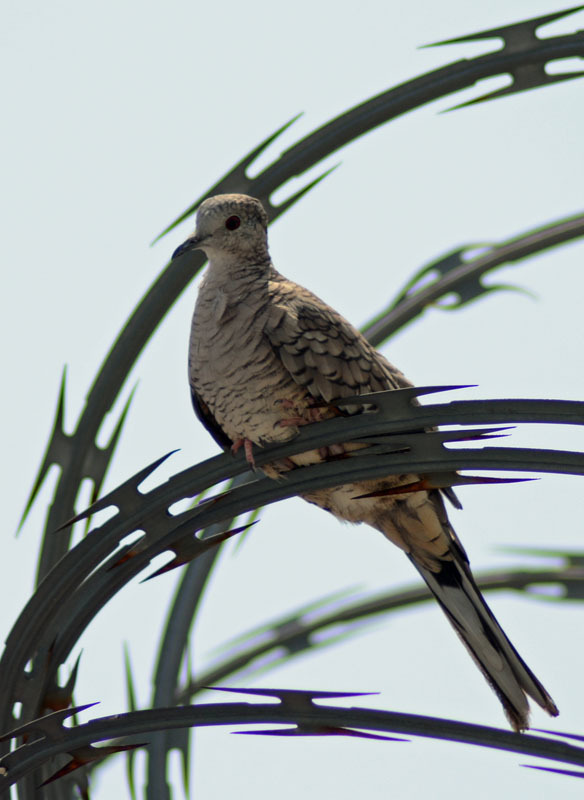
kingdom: Animalia
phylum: Chordata
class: Aves
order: Columbiformes
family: Columbidae
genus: Columbina
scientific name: Columbina inca
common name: Inca dove
